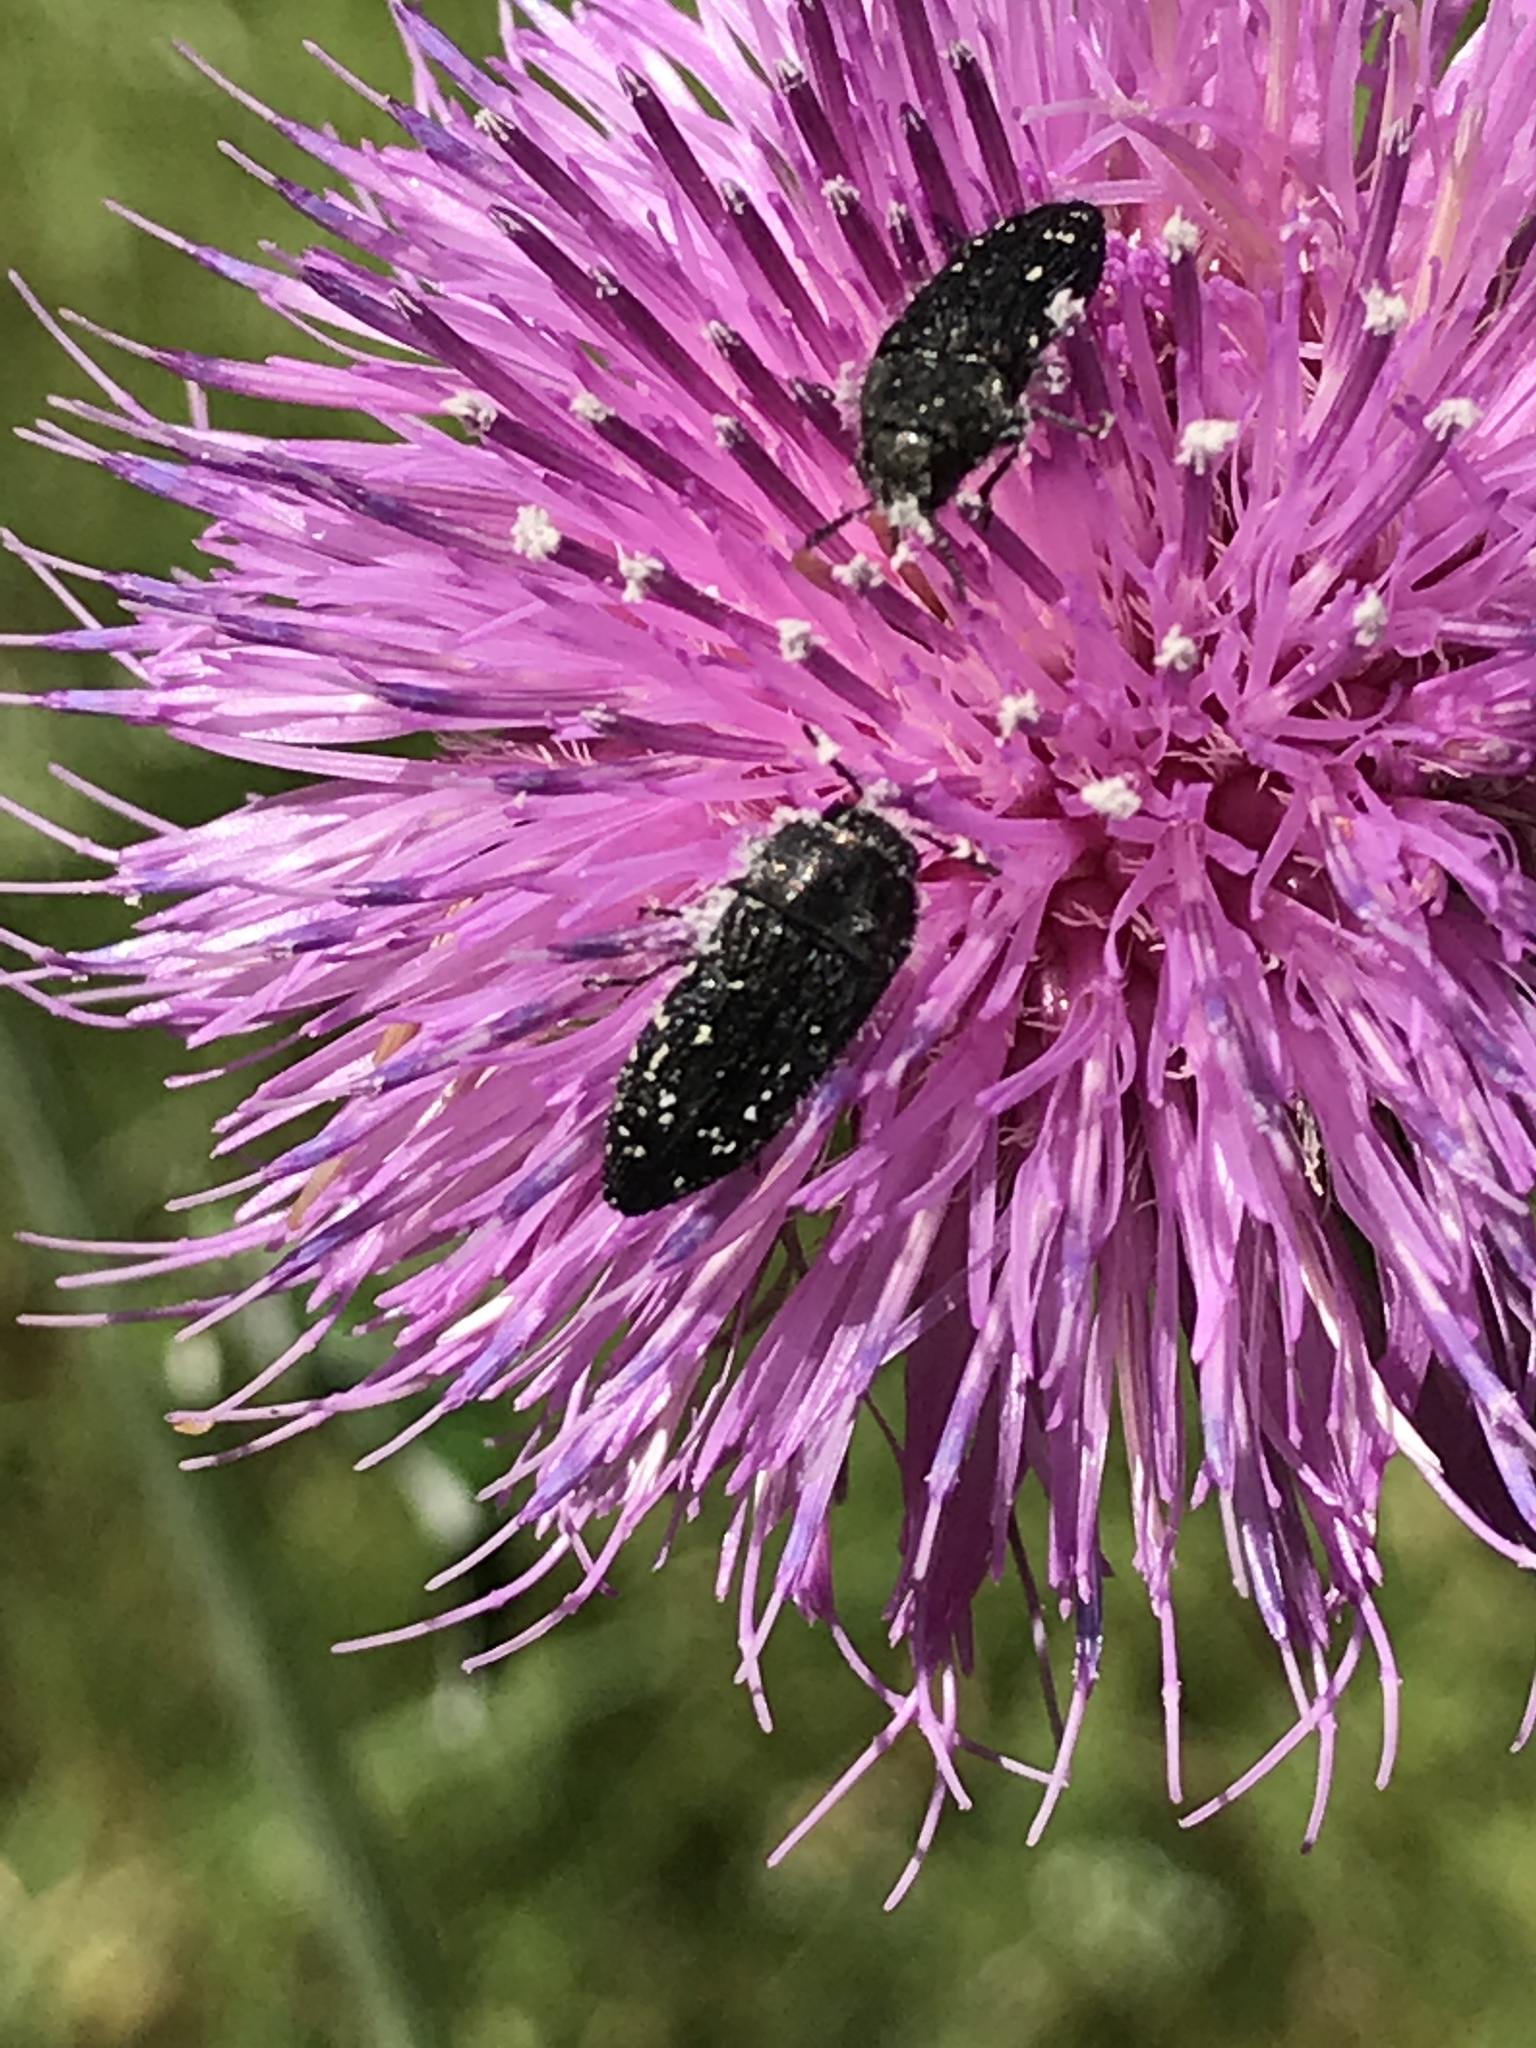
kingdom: Animalia
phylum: Arthropoda
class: Insecta
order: Coleoptera
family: Buprestidae
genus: Acmaeodera
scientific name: Acmaeodera ornatoides
